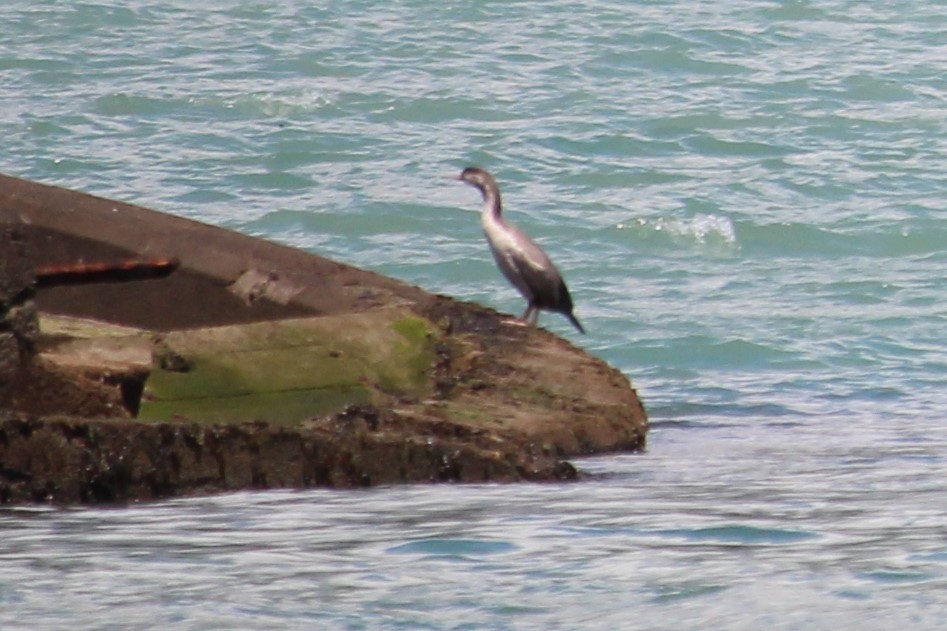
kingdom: Animalia
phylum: Chordata
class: Aves
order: Suliformes
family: Phalacrocoracidae
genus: Phalacrocorax
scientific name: Phalacrocorax punctatus
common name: Spotted shag
